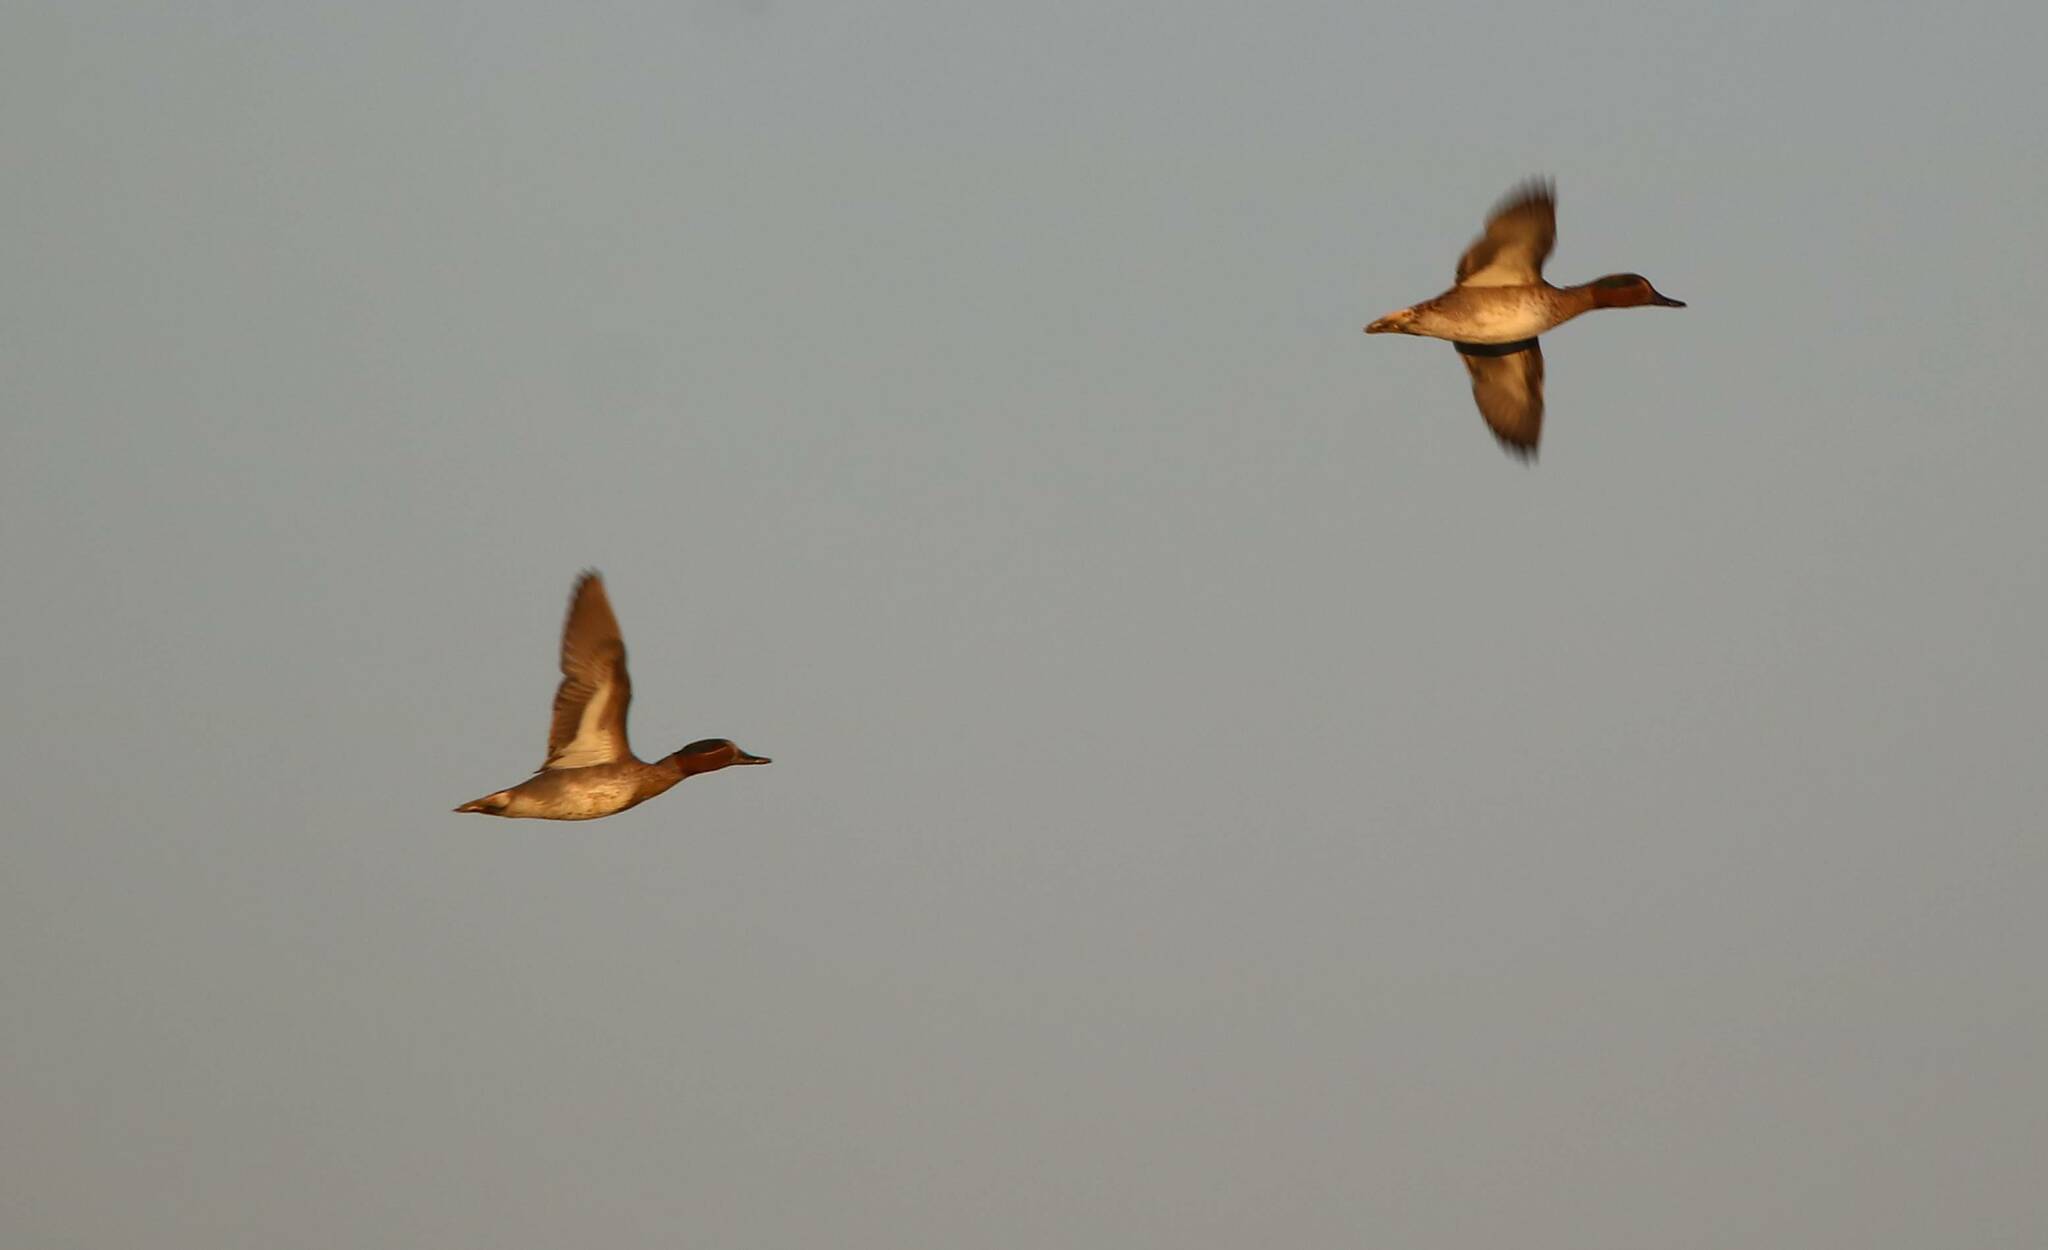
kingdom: Animalia
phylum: Chordata
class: Aves
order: Anseriformes
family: Anatidae
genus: Anas
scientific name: Anas crecca
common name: Eurasian teal
